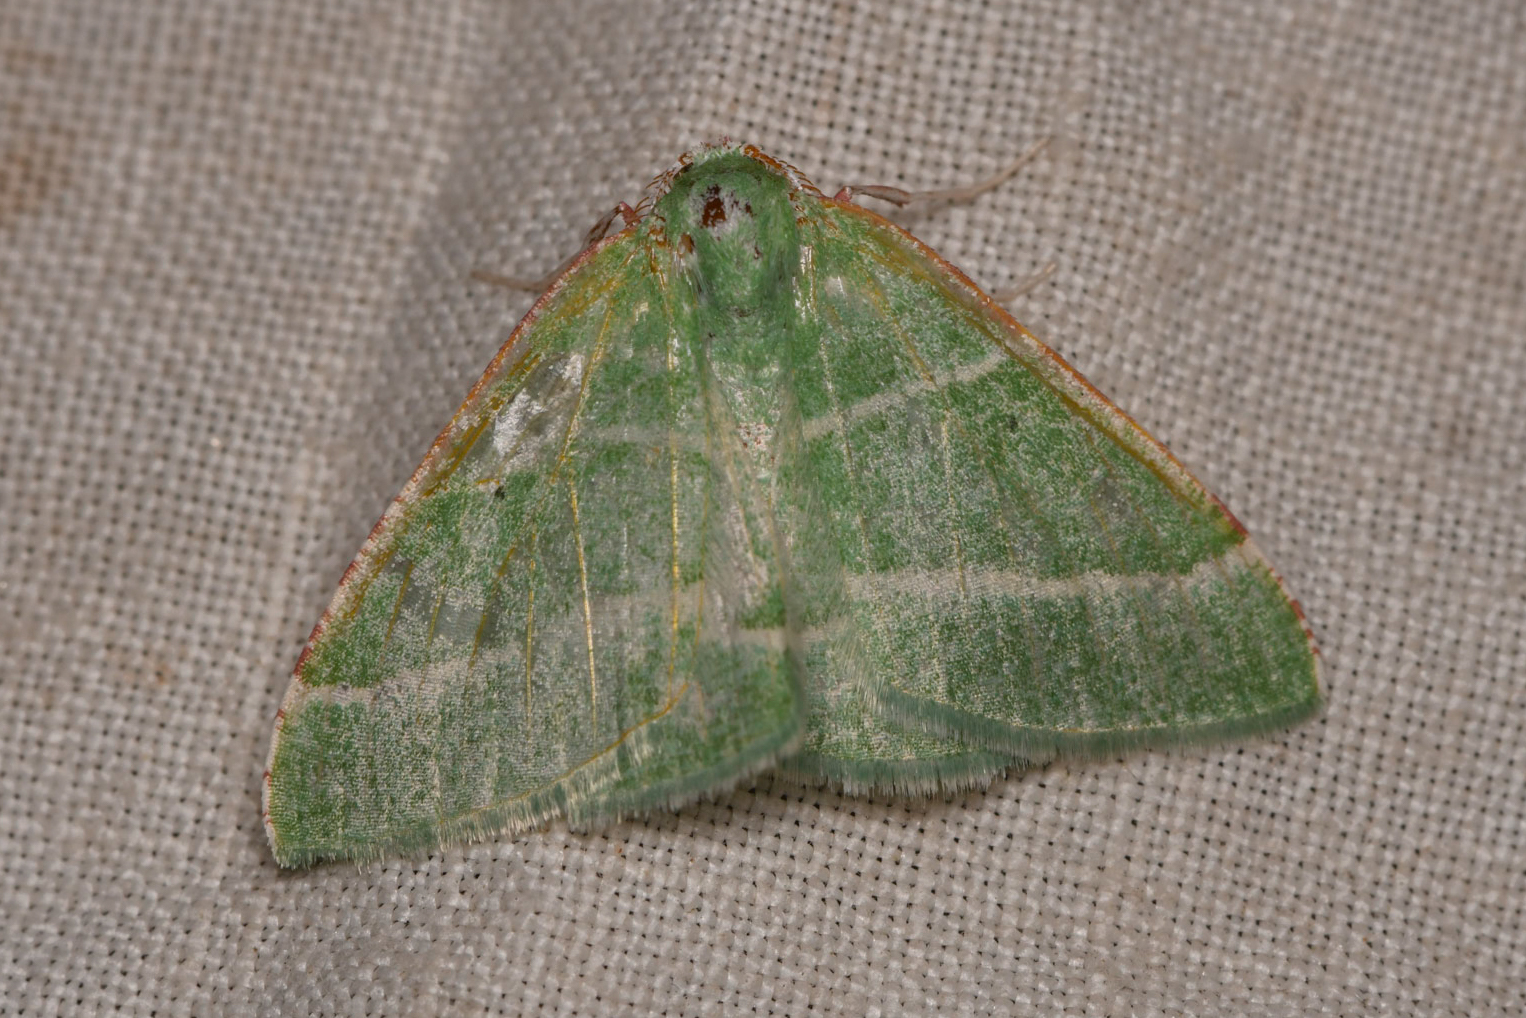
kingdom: Animalia
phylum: Arthropoda
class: Insecta
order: Lepidoptera
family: Geometridae
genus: Dichordophora
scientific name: Dichordophora phoenix
